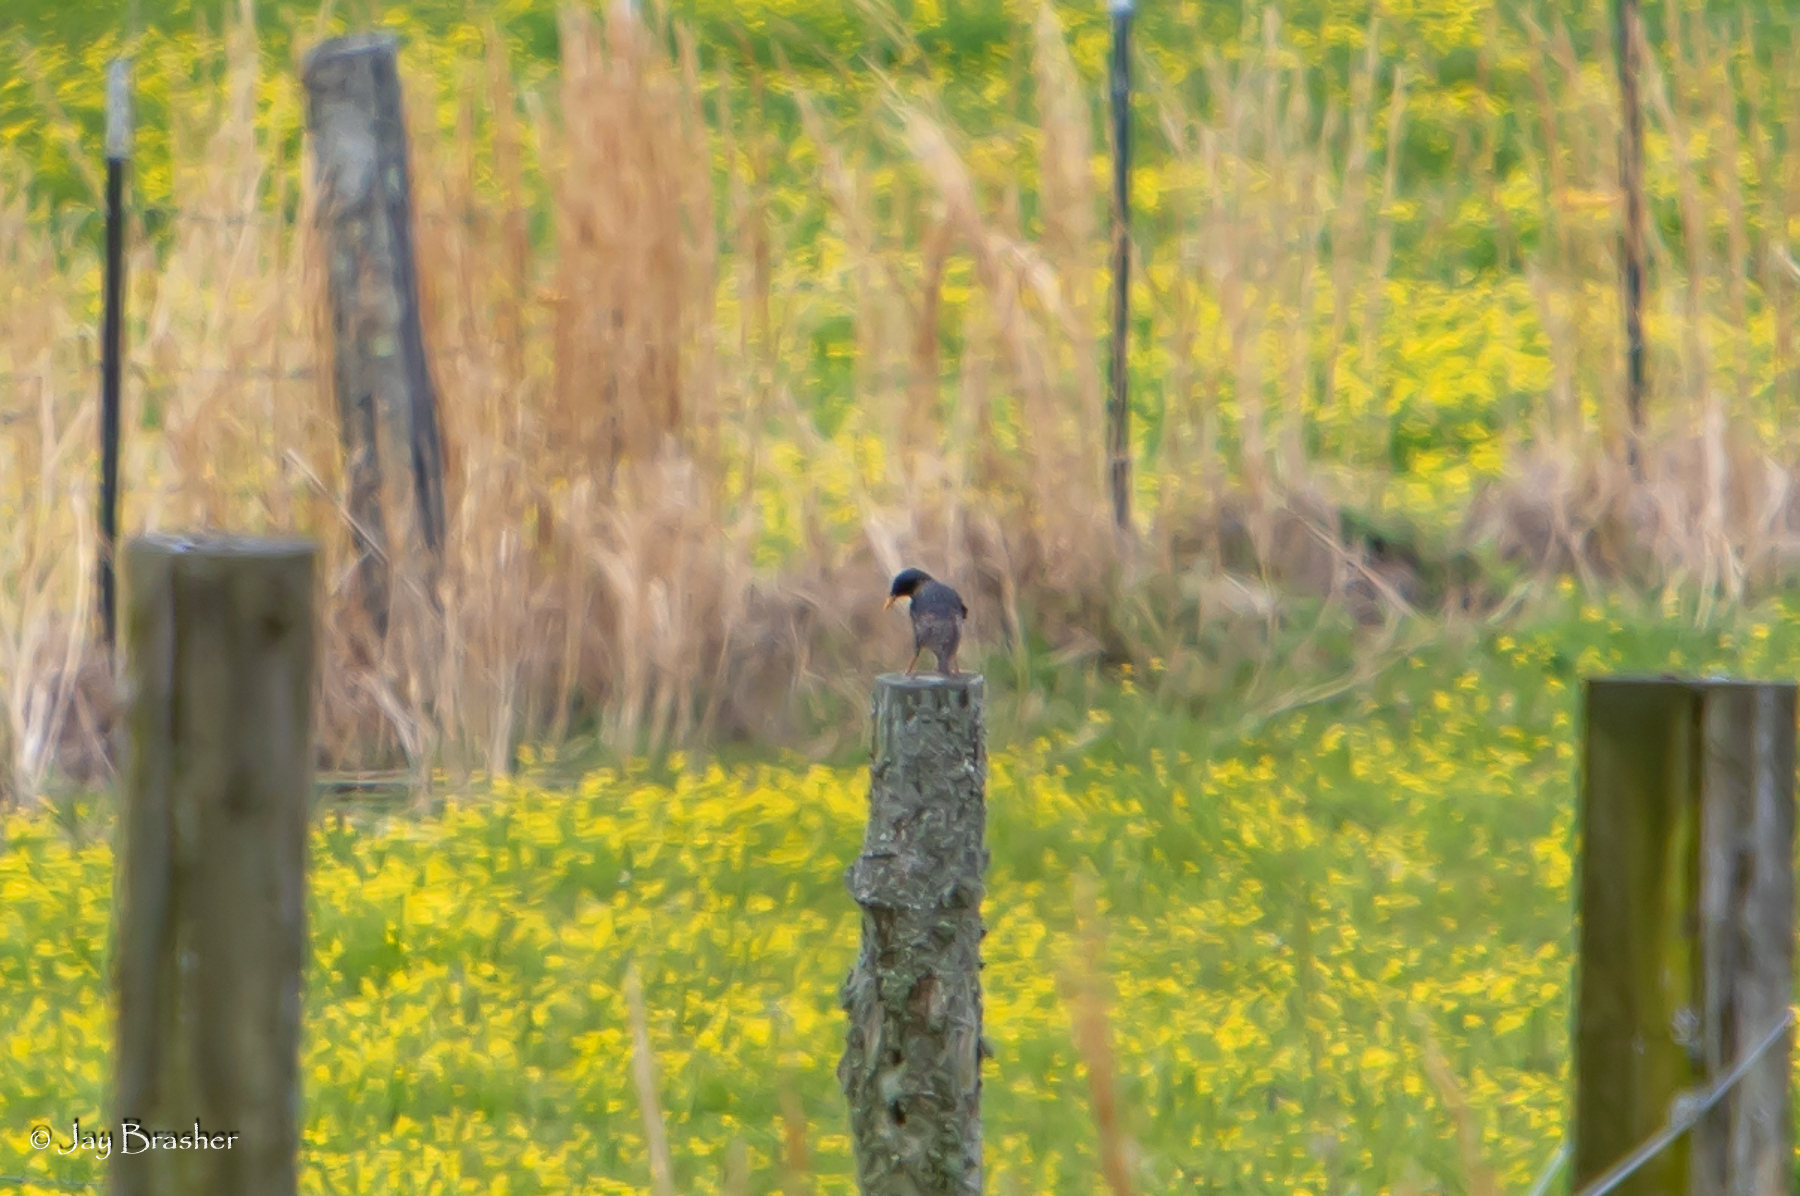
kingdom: Animalia
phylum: Chordata
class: Aves
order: Passeriformes
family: Sturnidae
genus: Sturnus
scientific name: Sturnus vulgaris
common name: Common starling
